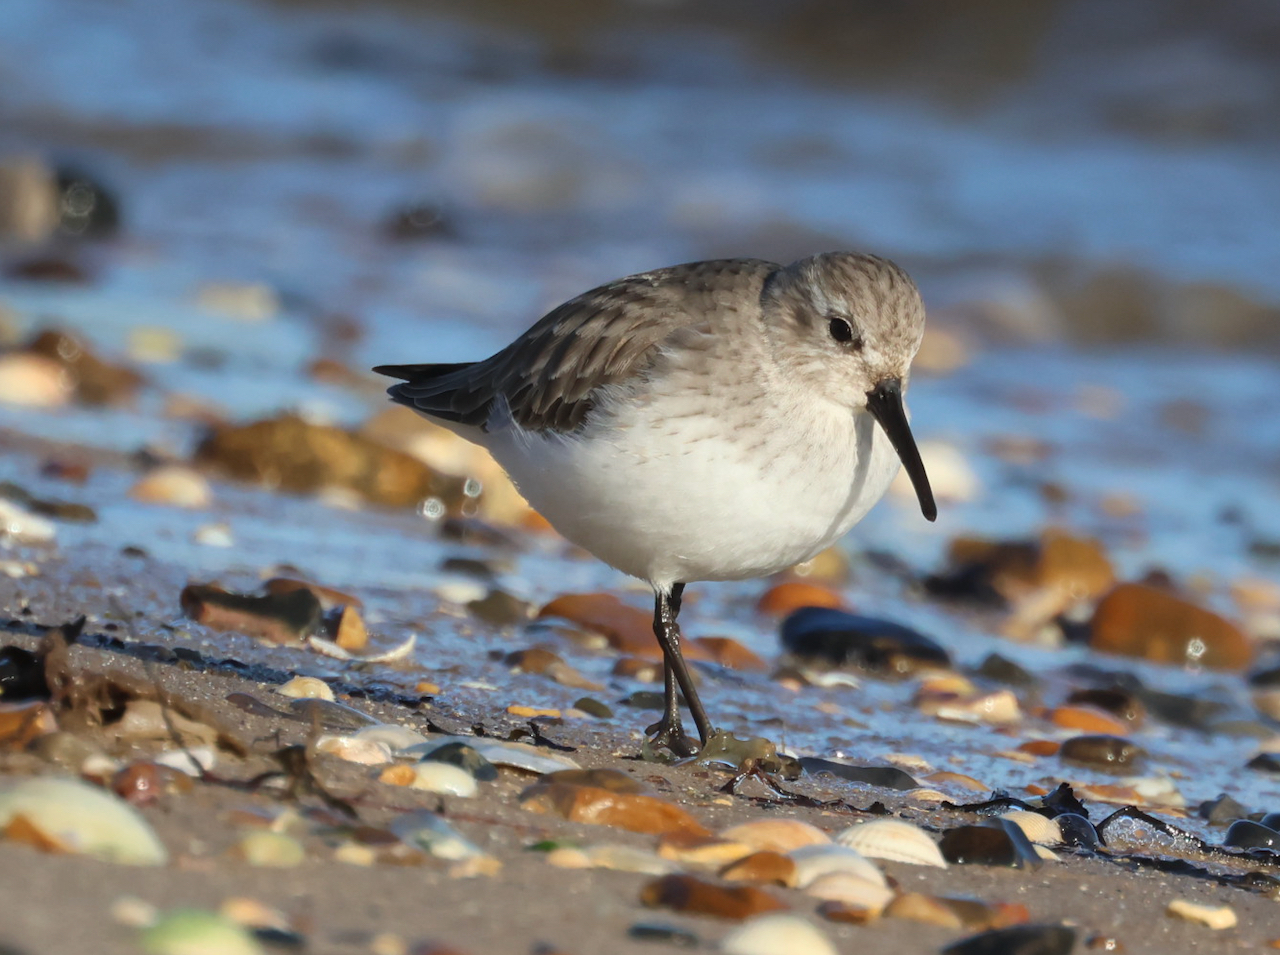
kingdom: Animalia
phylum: Chordata
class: Aves
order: Charadriiformes
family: Scolopacidae
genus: Calidris
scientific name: Calidris alpina
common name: Dunlin
